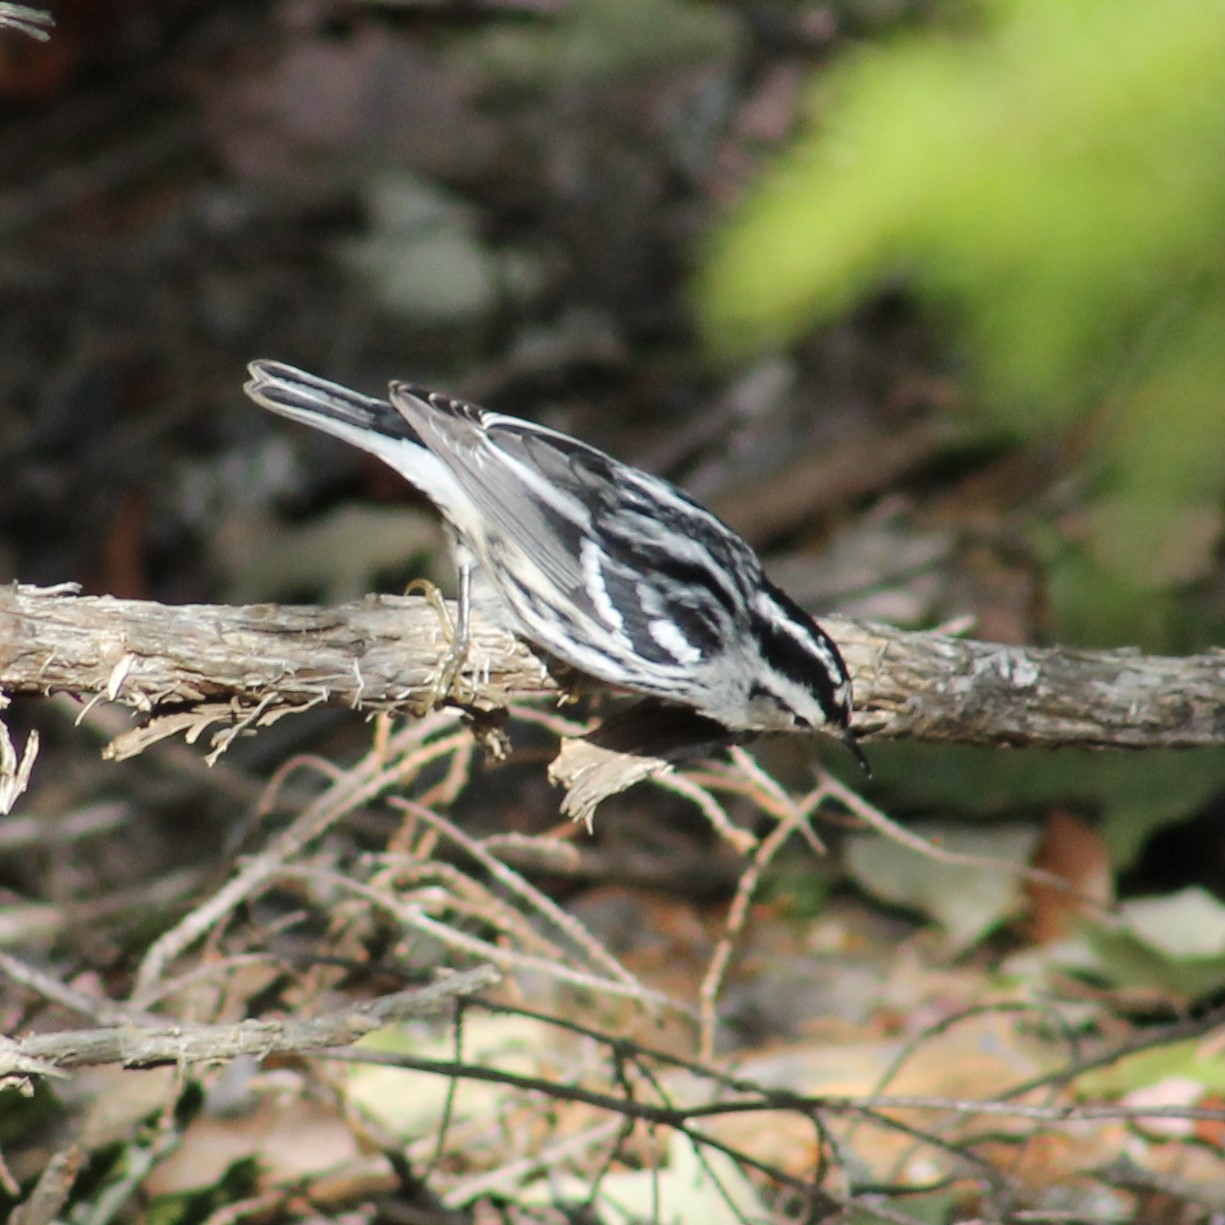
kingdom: Animalia
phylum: Chordata
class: Aves
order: Passeriformes
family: Parulidae
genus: Mniotilta
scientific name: Mniotilta varia
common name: Black-and-white warbler
